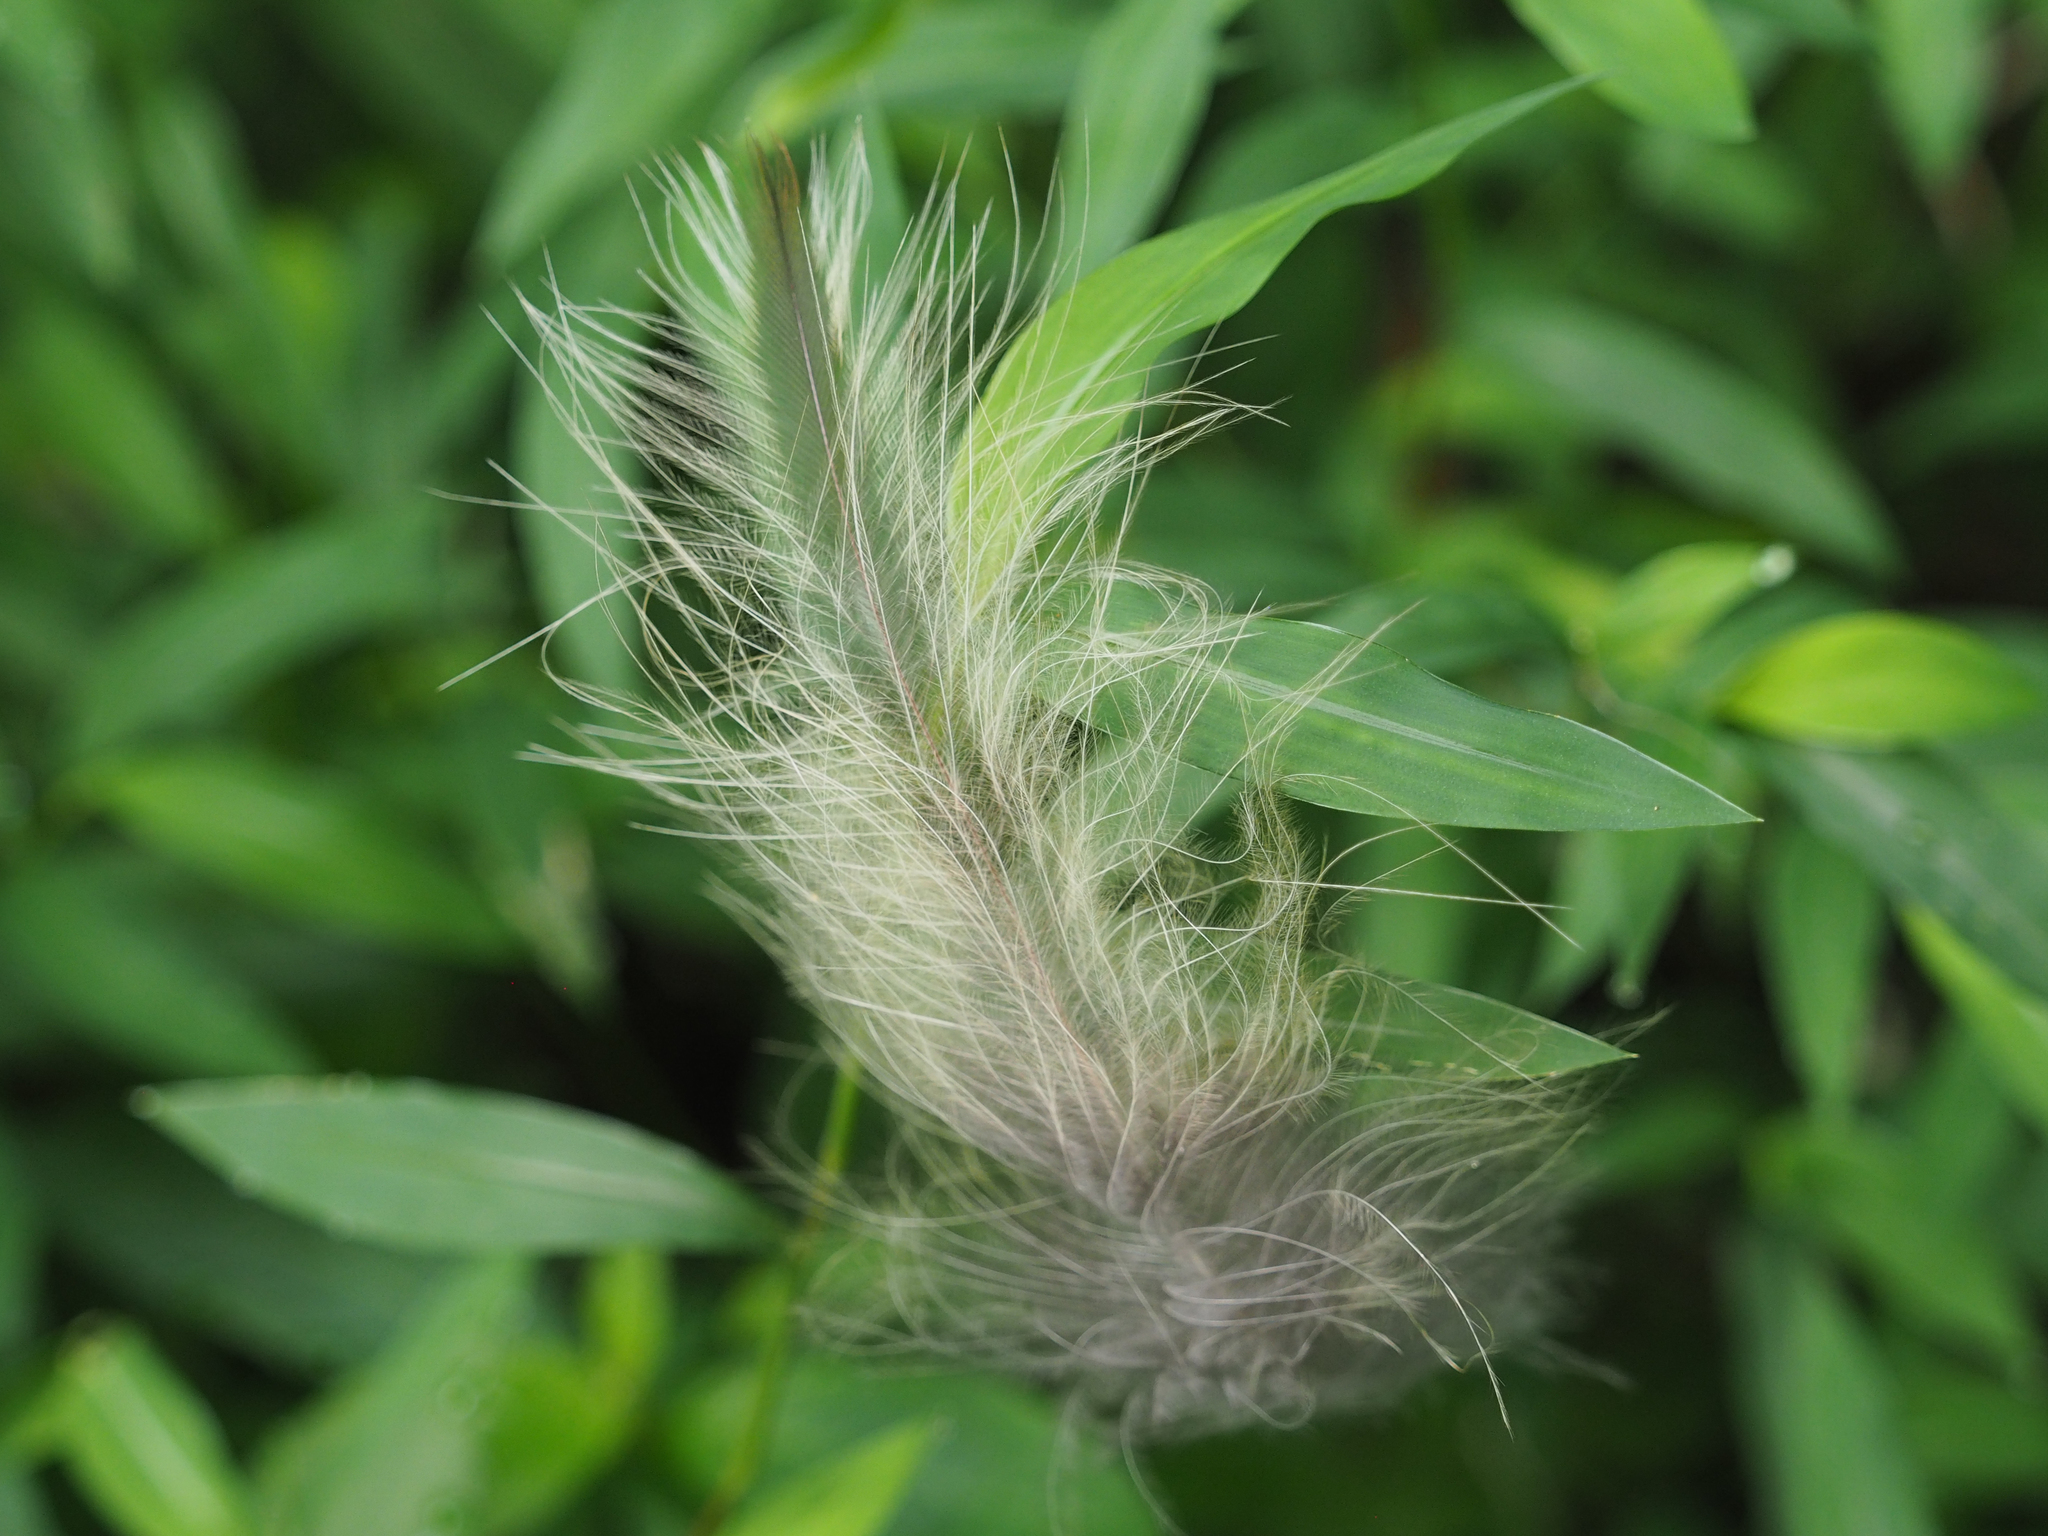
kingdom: Animalia
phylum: Chordata
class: Aves
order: Strigiformes
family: Strigidae
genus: Strix
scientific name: Strix varia
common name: Barred owl
